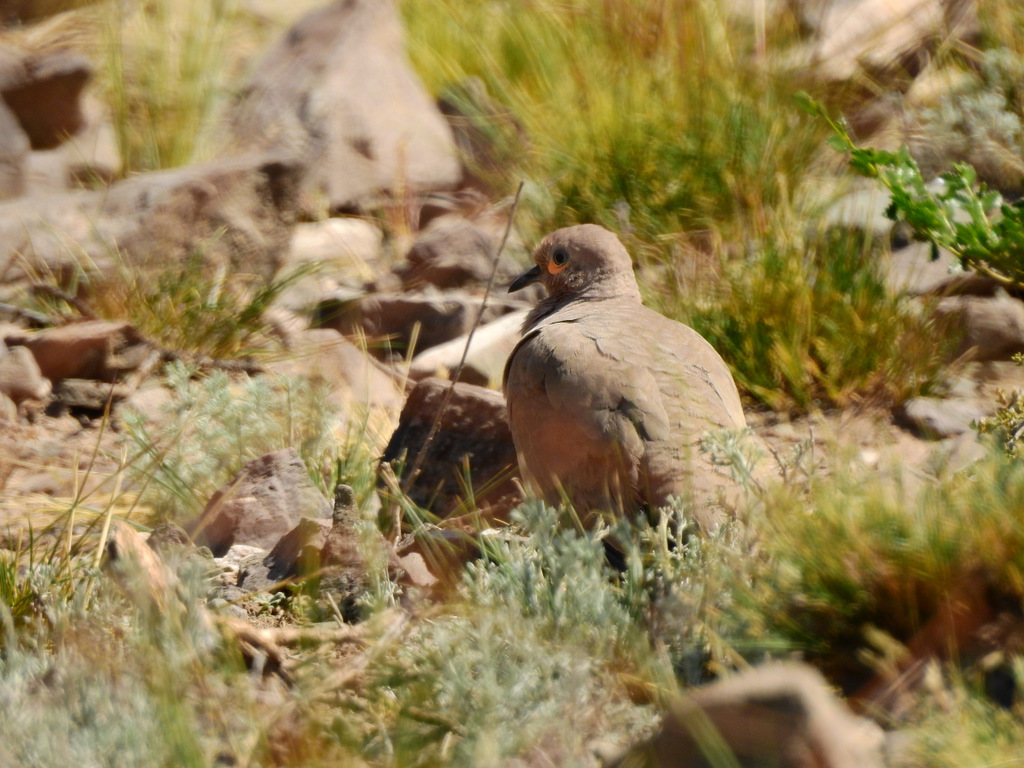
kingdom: Animalia
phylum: Chordata
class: Aves
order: Columbiformes
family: Columbidae
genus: Metriopelia
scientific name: Metriopelia melanoptera
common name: Black-winged ground dove
